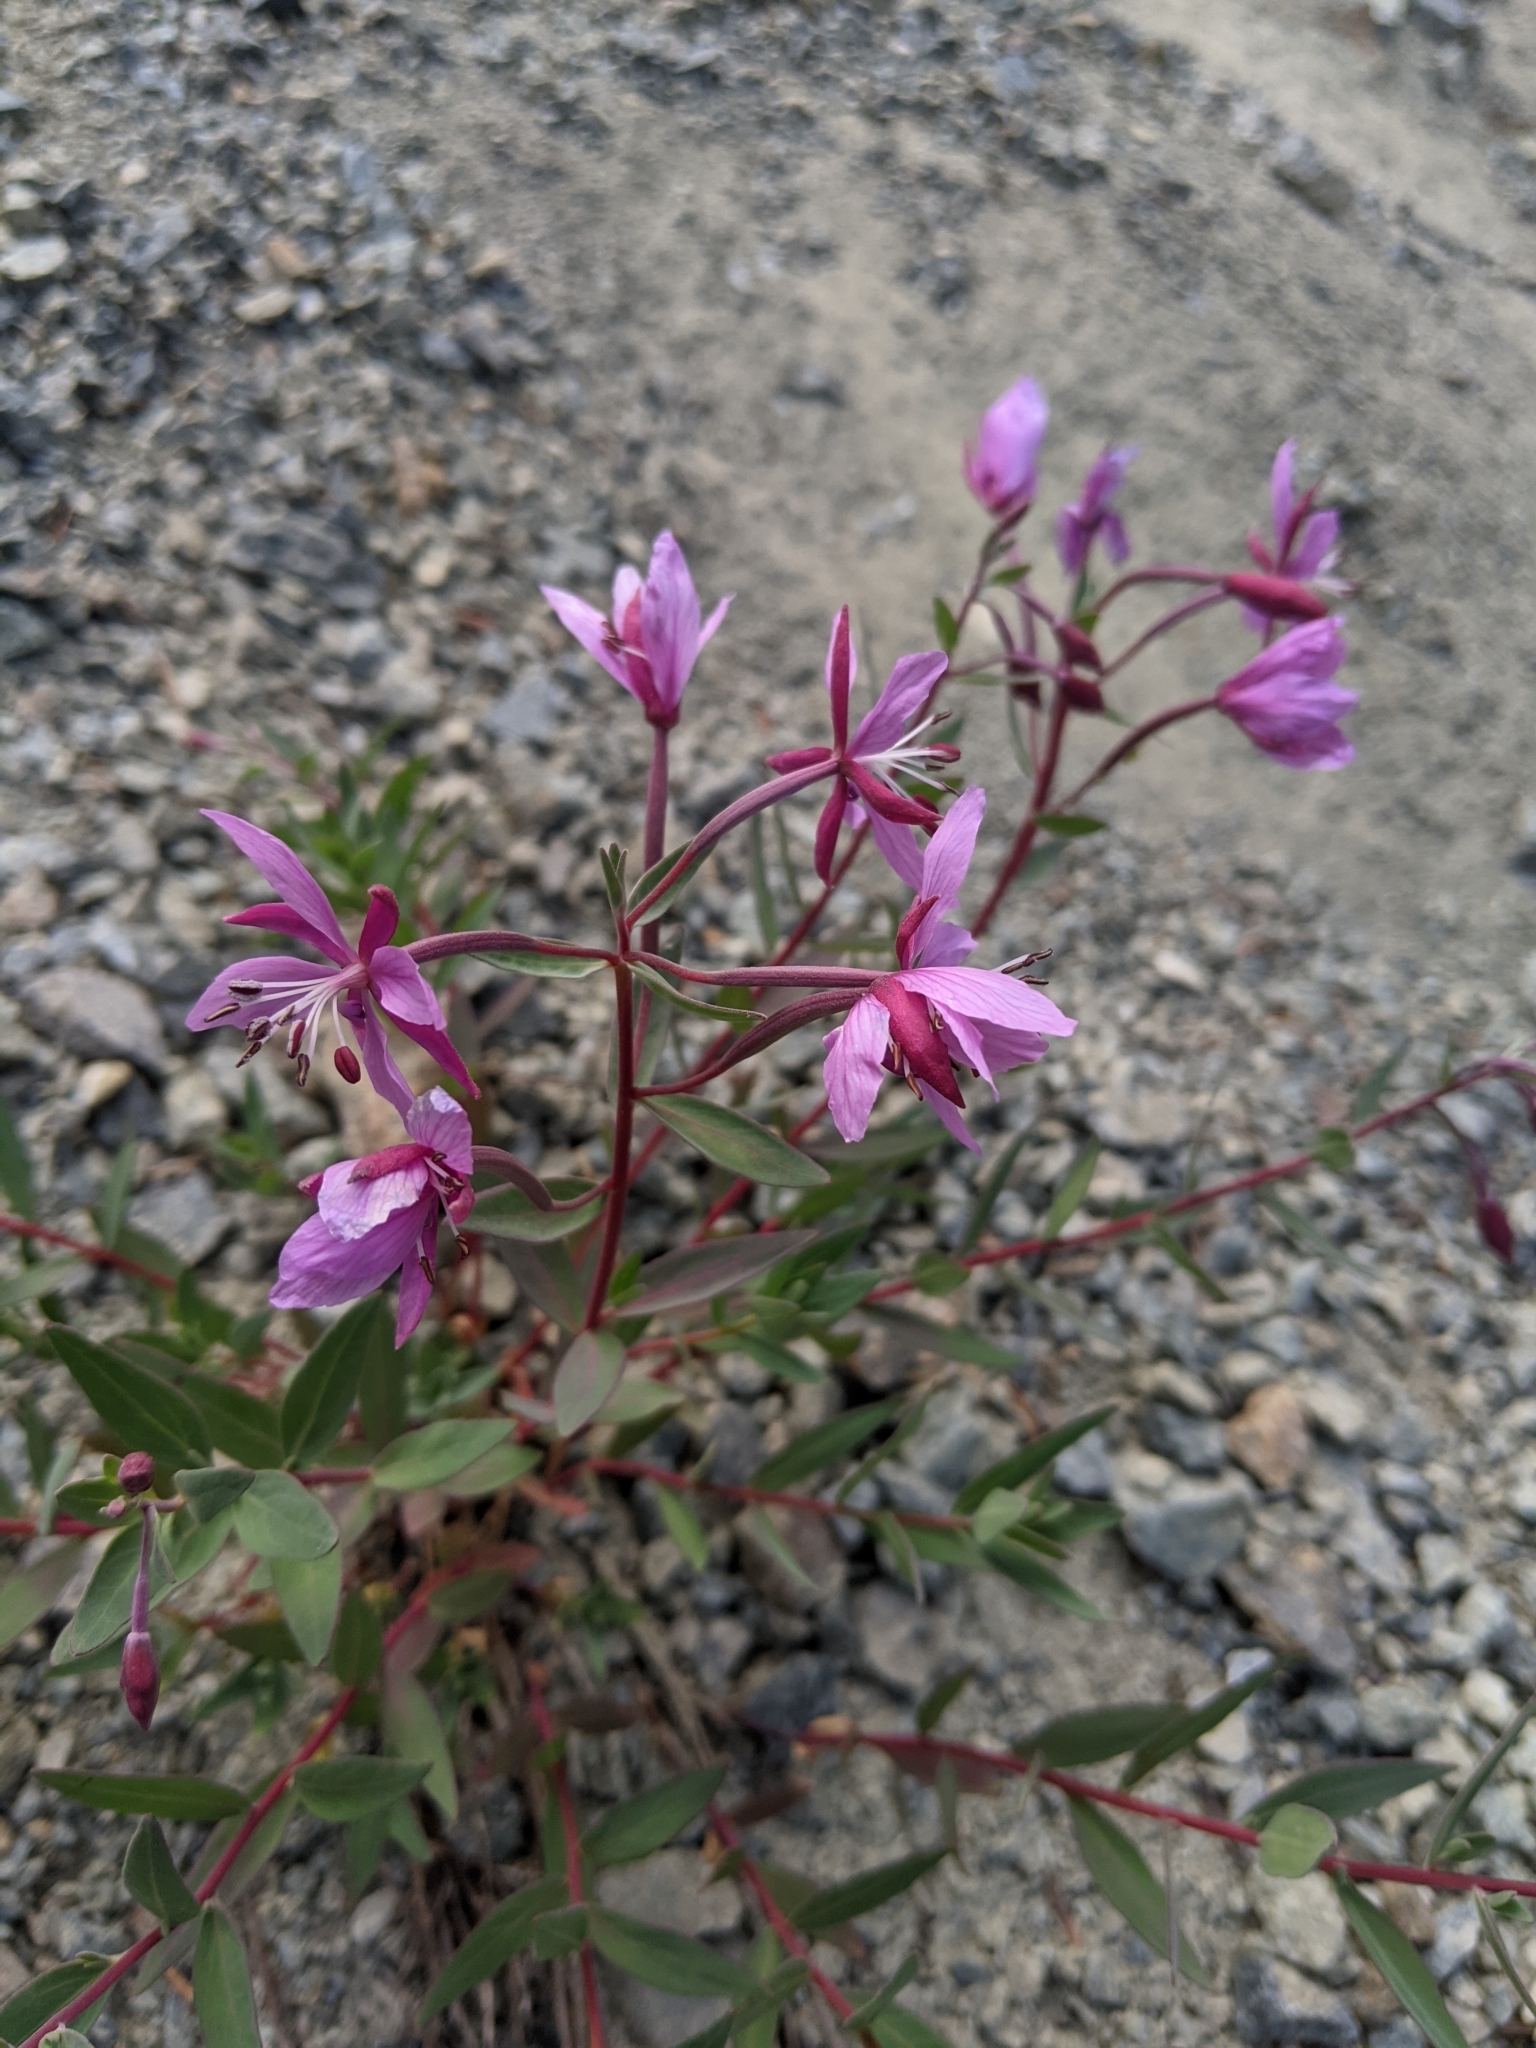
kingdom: Plantae
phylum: Tracheophyta
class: Magnoliopsida
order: Myrtales
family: Onagraceae
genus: Chamaenerion
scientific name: Chamaenerion latifolium
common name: Dwarf fireweed
